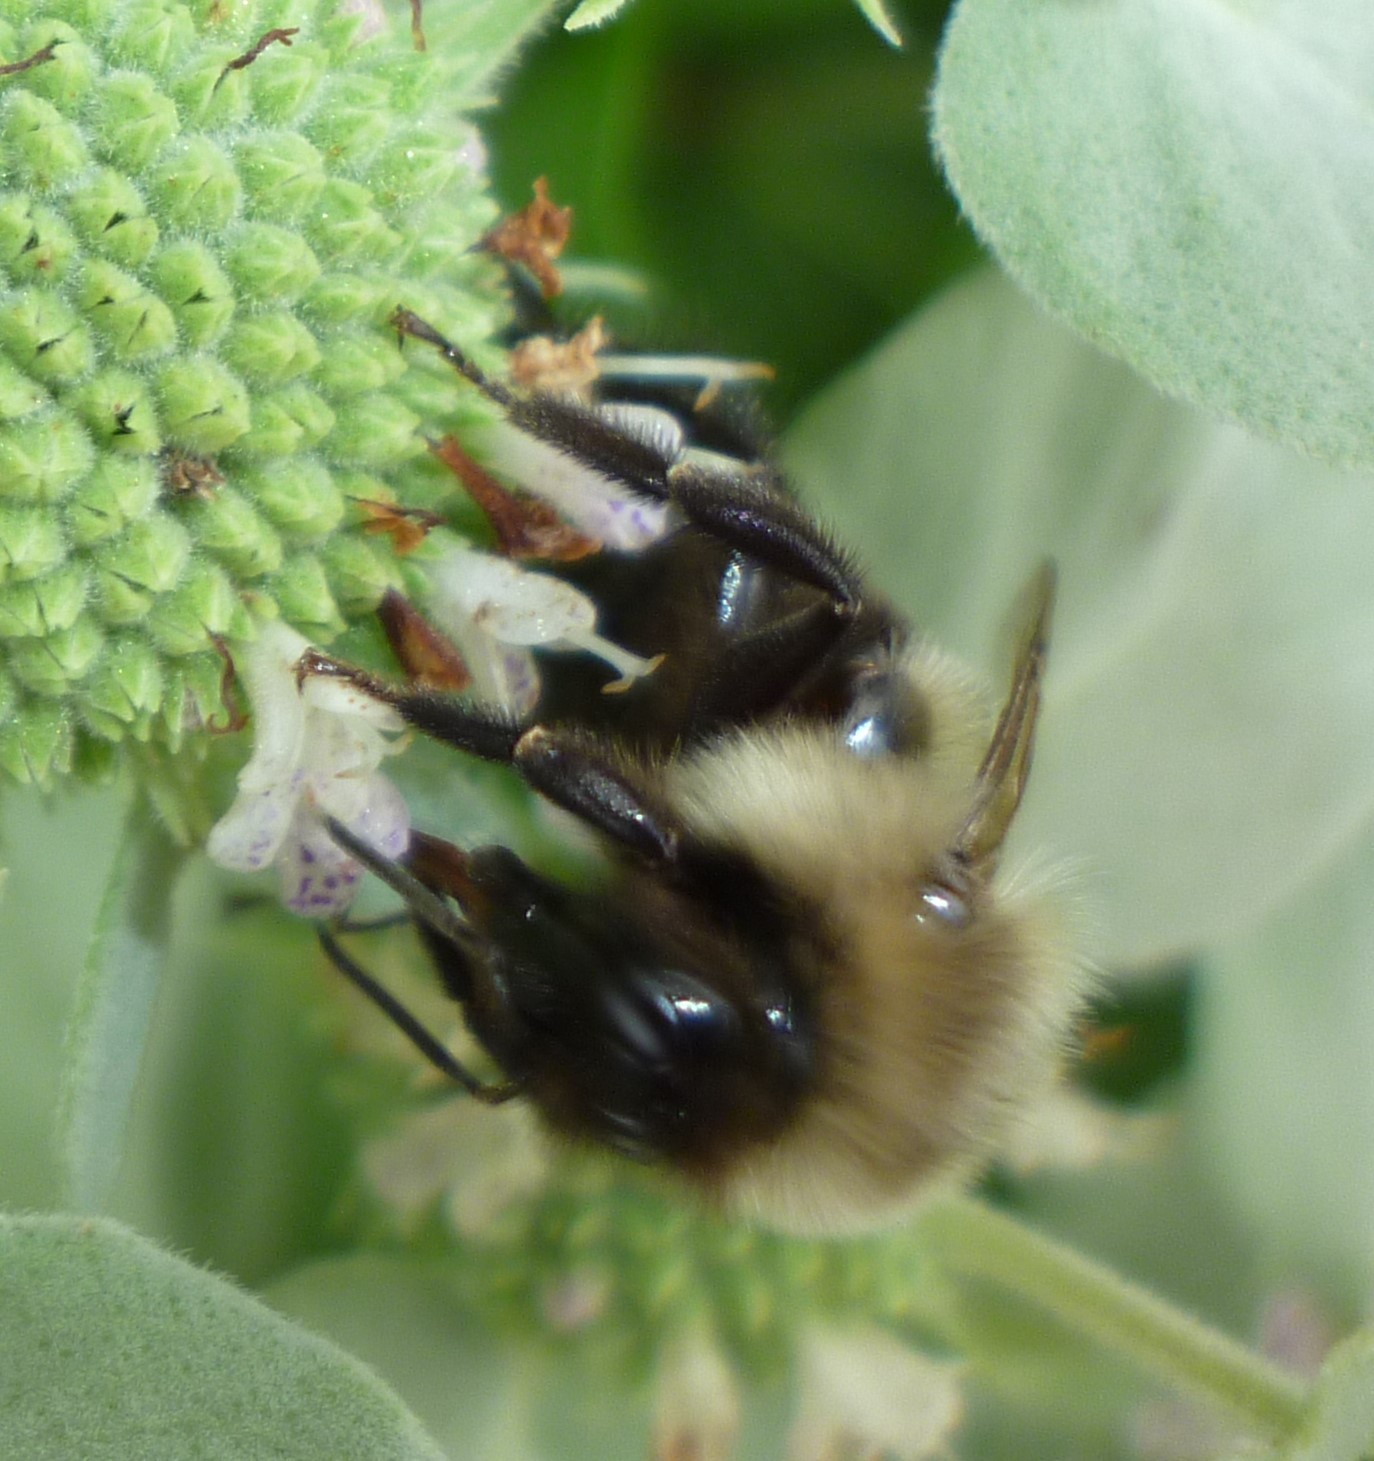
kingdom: Animalia
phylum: Arthropoda
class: Insecta
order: Hymenoptera
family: Apidae
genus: Bombus
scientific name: Bombus impatiens
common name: Common eastern bumble bee
